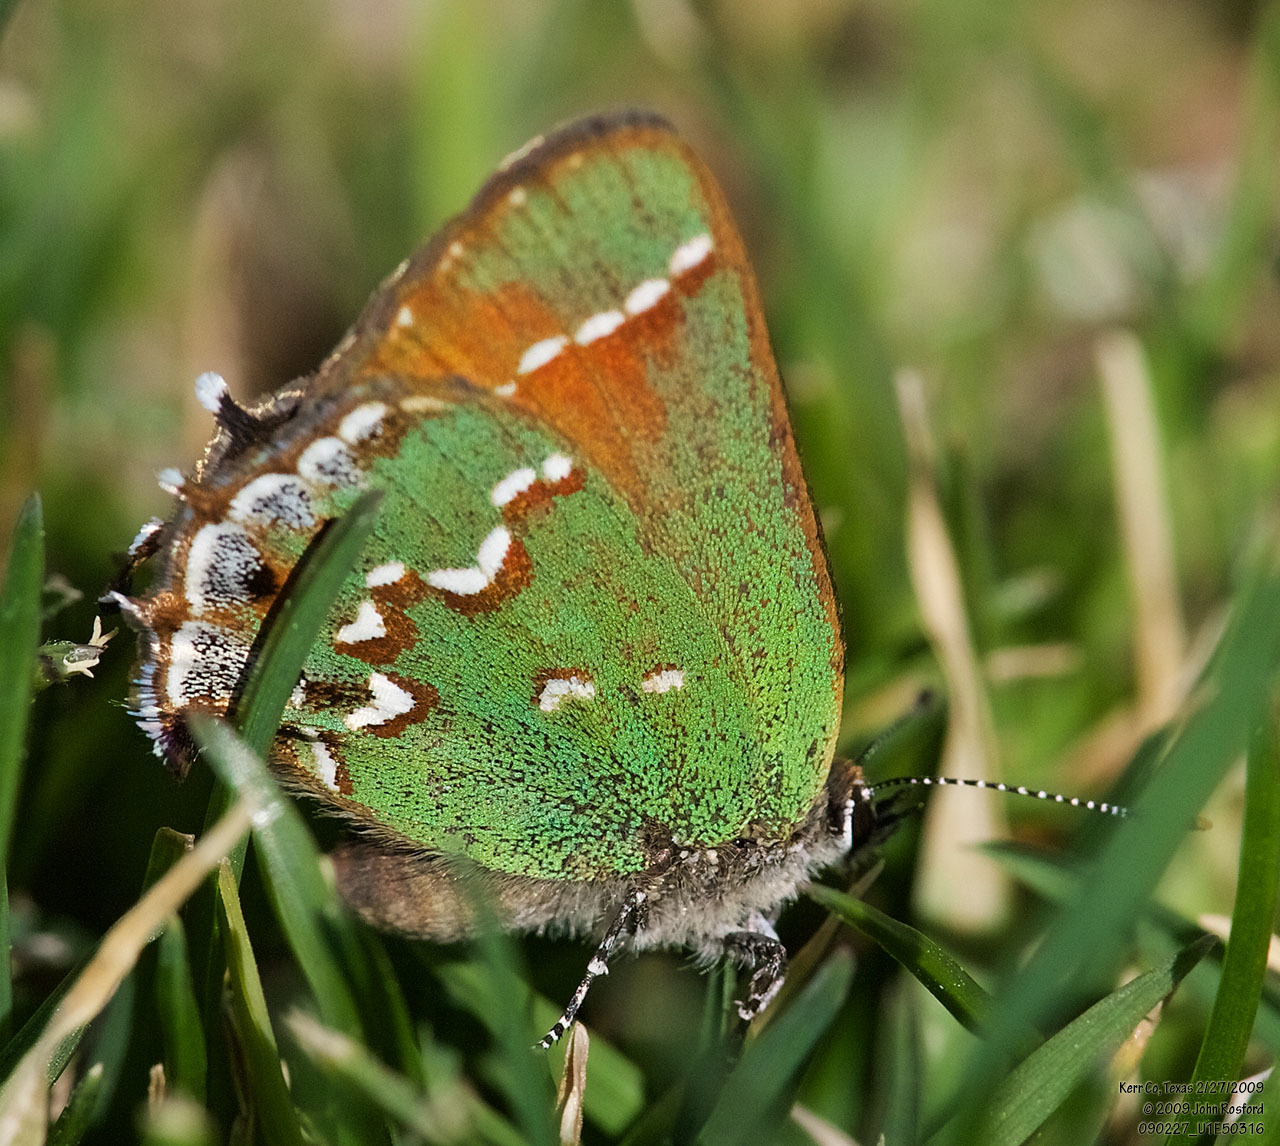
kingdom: Animalia
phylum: Arthropoda
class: Insecta
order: Lepidoptera
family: Lycaenidae
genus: Mitoura
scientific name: Mitoura gryneus
